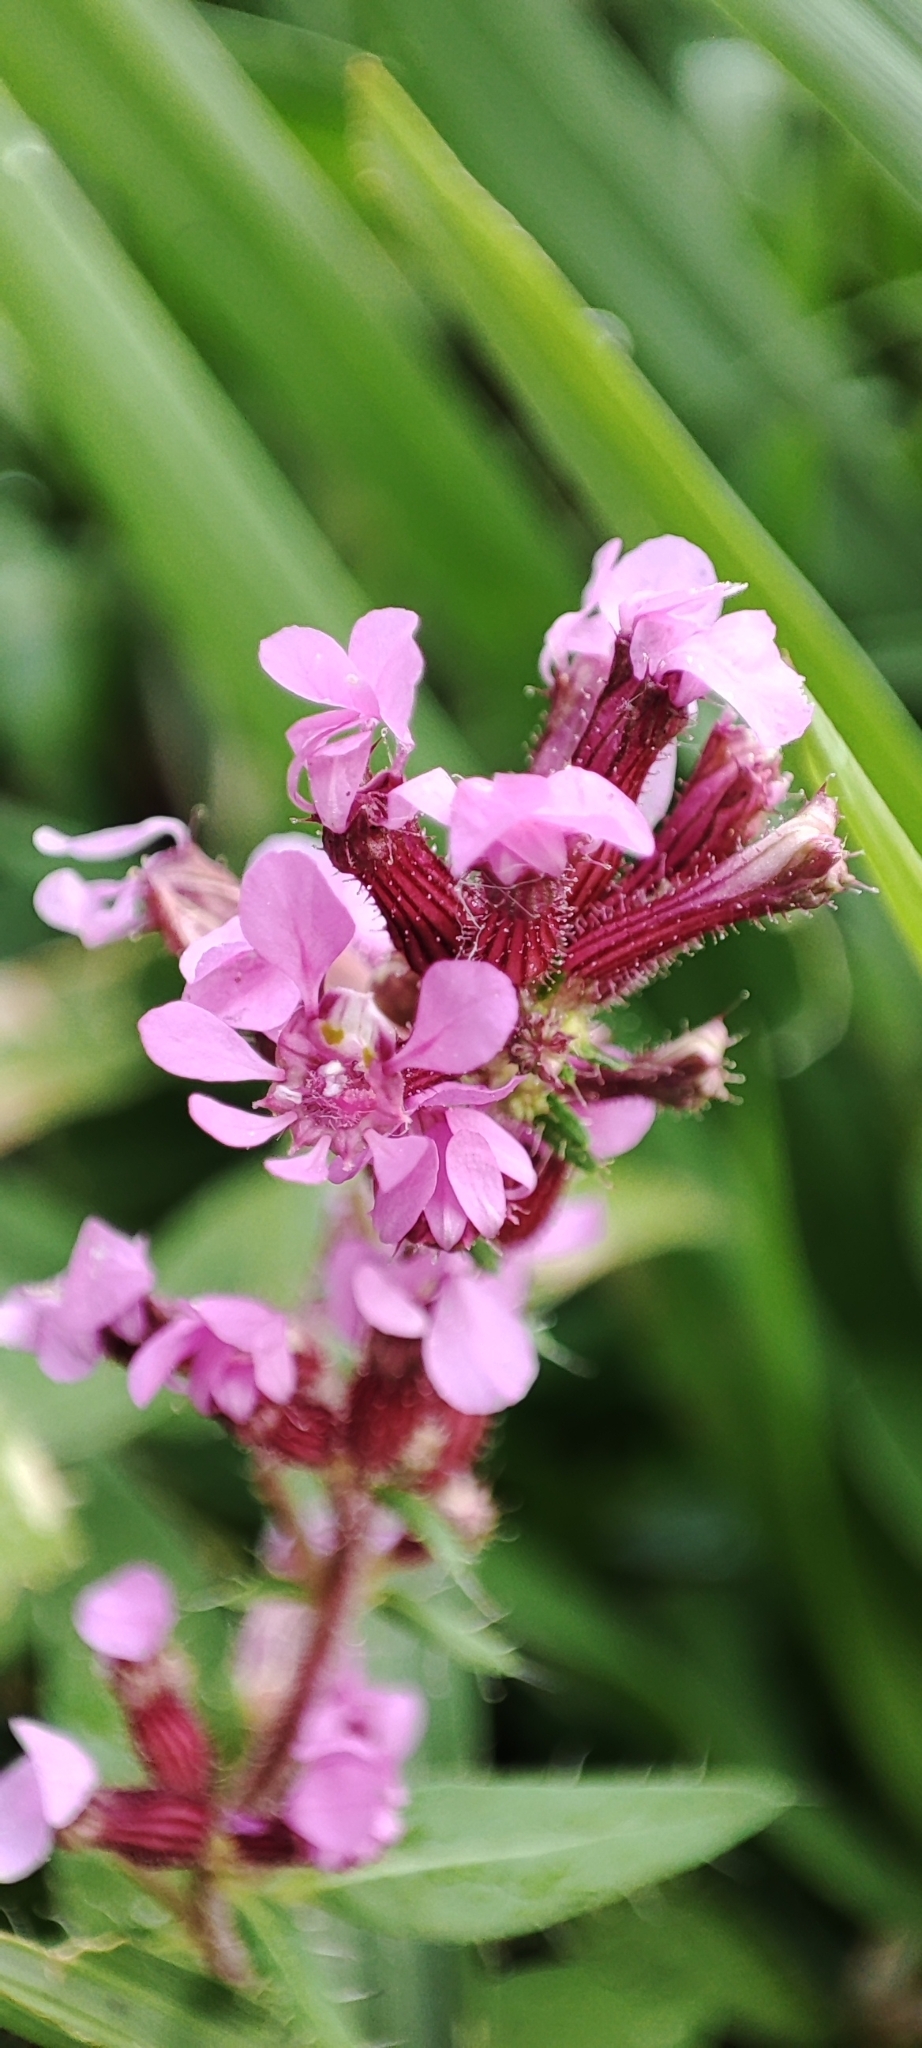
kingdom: Plantae
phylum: Tracheophyta
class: Magnoliopsida
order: Myrtales
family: Lythraceae
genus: Cuphea
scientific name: Cuphea ferrisiae
